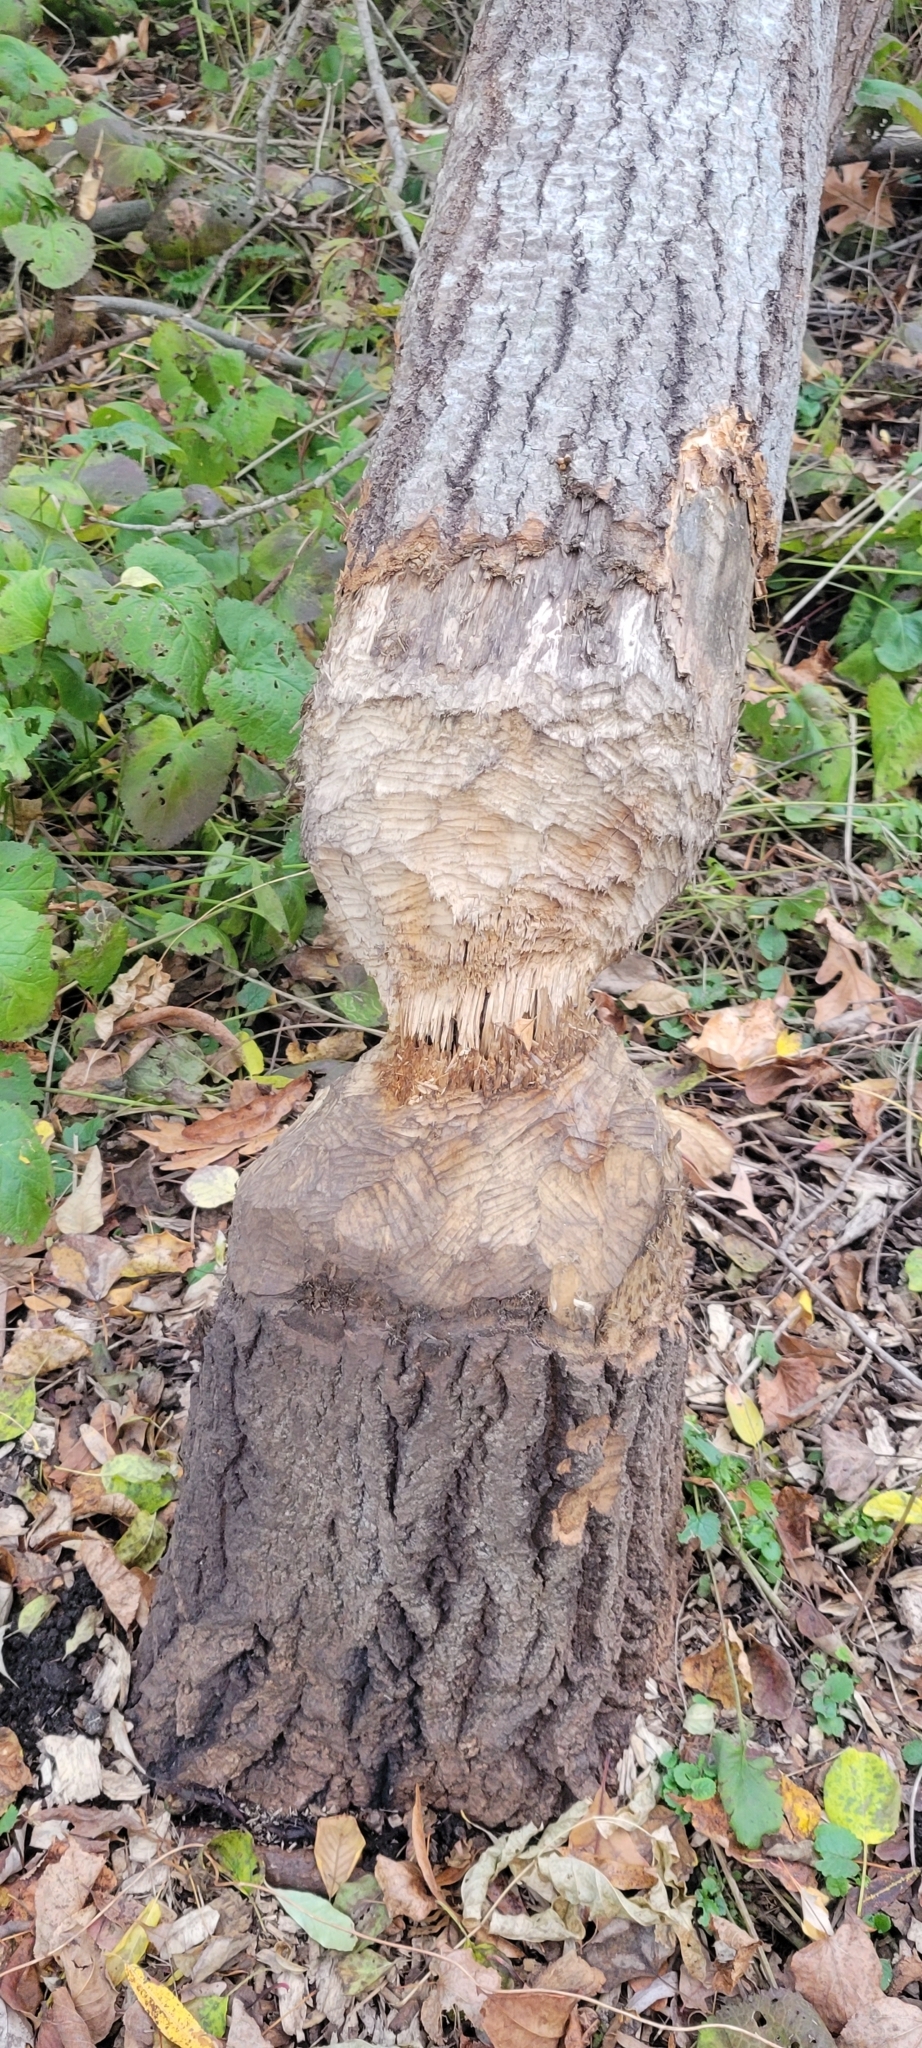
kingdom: Animalia
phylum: Chordata
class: Mammalia
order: Rodentia
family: Castoridae
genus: Castor
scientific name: Castor canadensis
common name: American beaver
